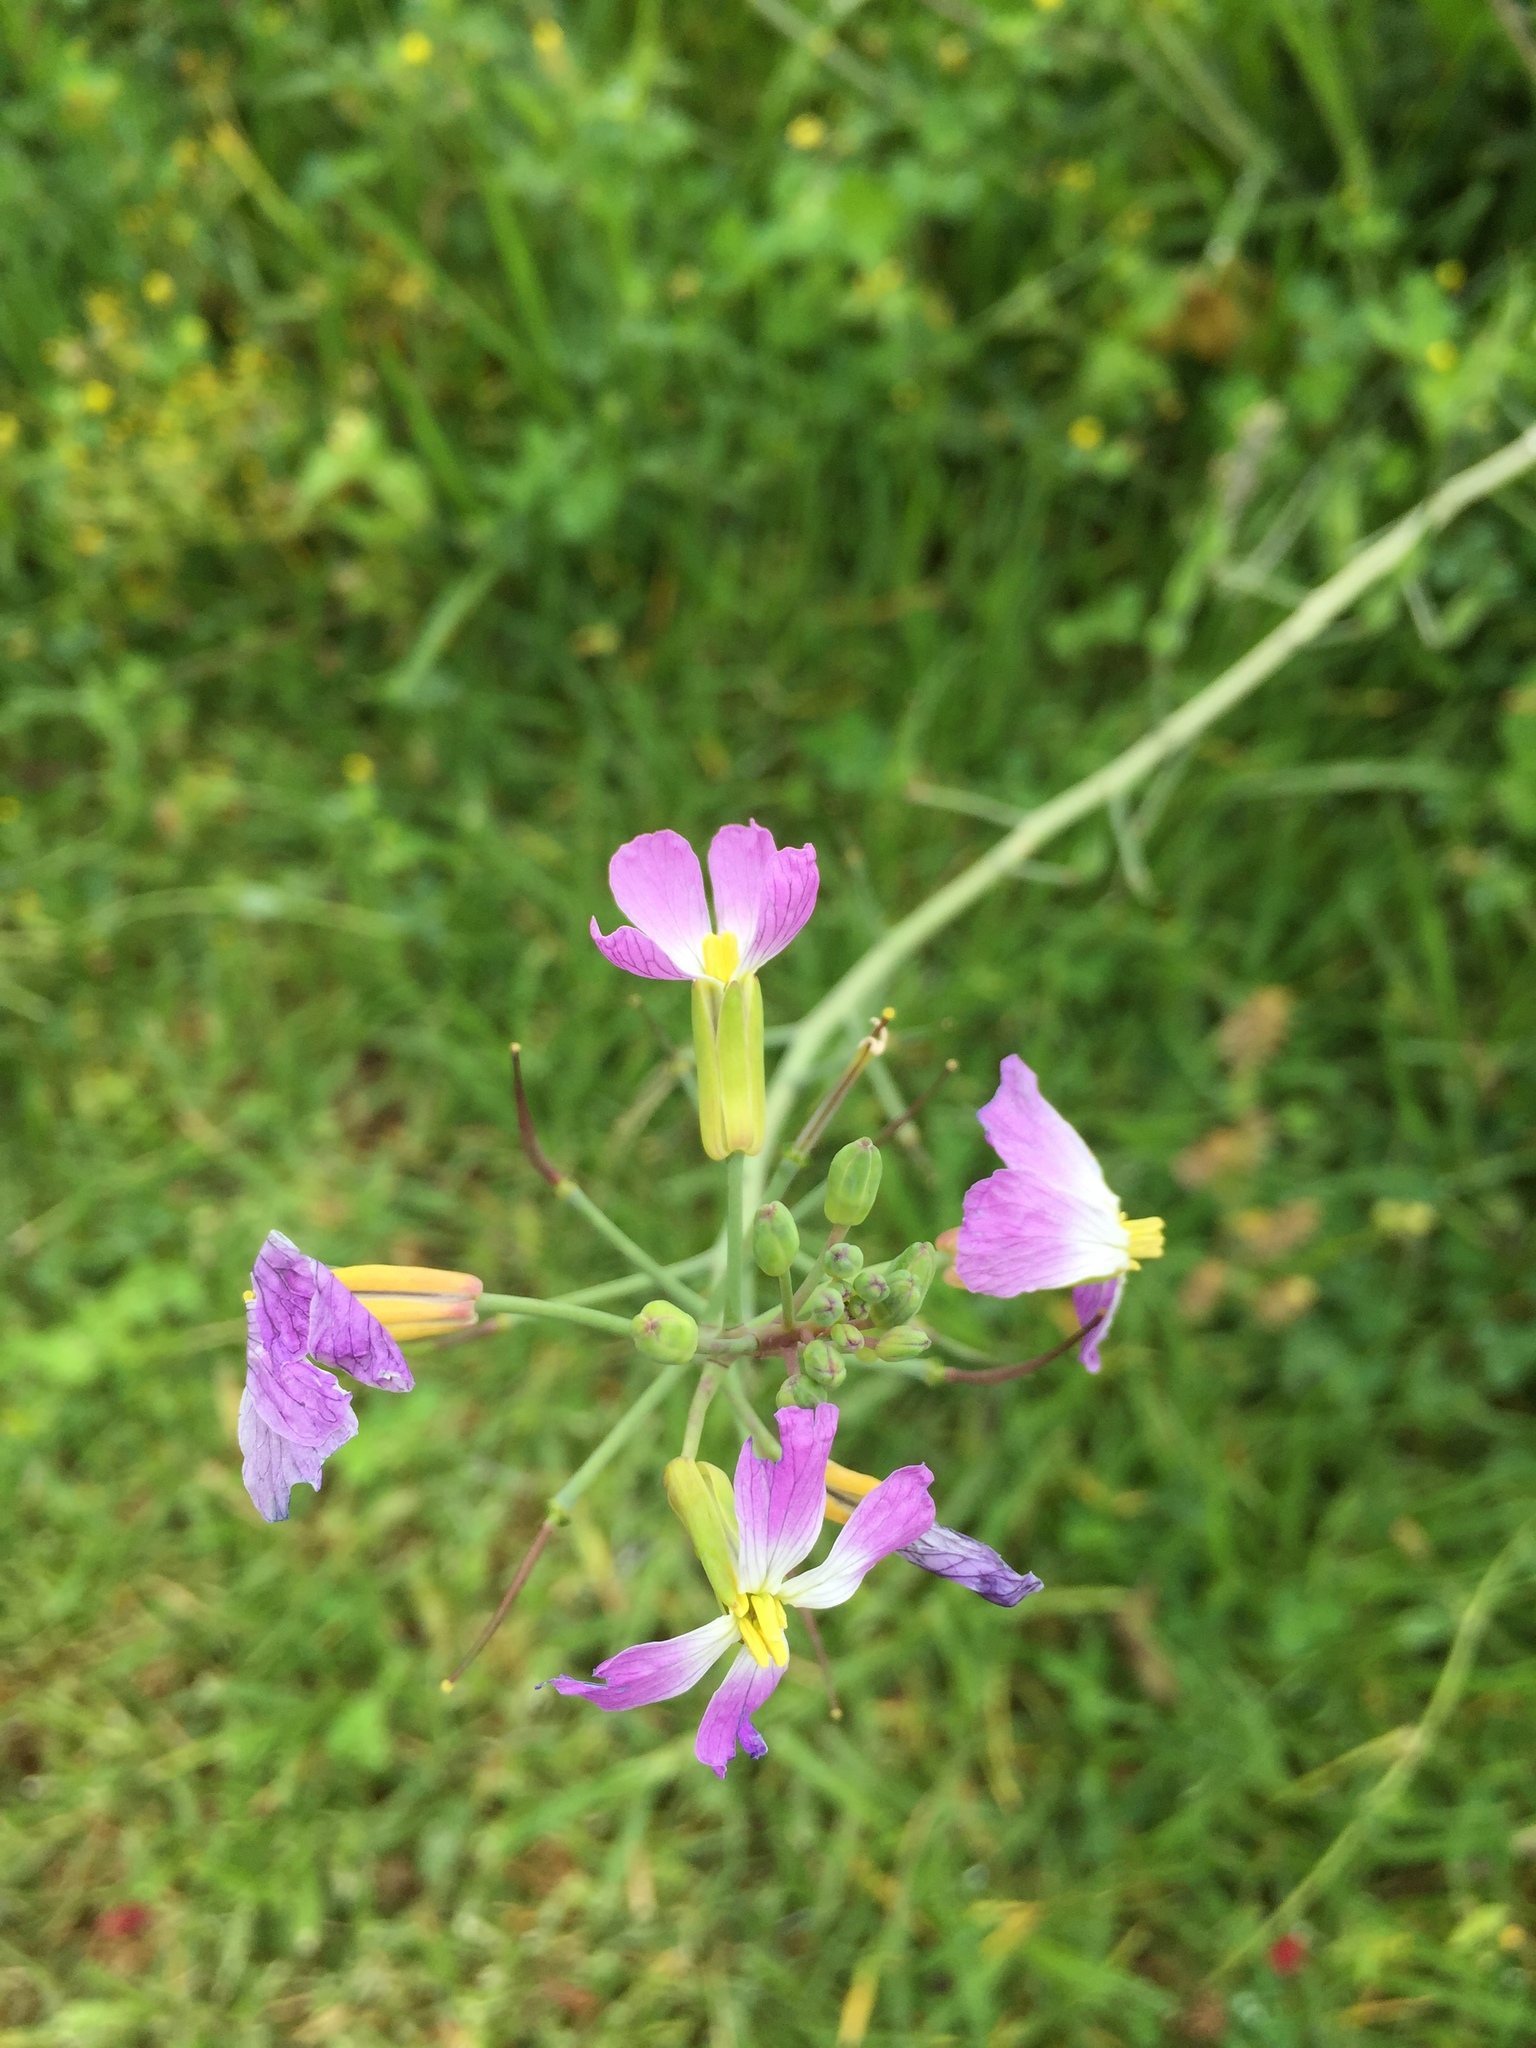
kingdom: Plantae
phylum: Tracheophyta
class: Magnoliopsida
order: Brassicales
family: Brassicaceae
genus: Raphanus
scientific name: Raphanus sativus
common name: Cultivated radish
